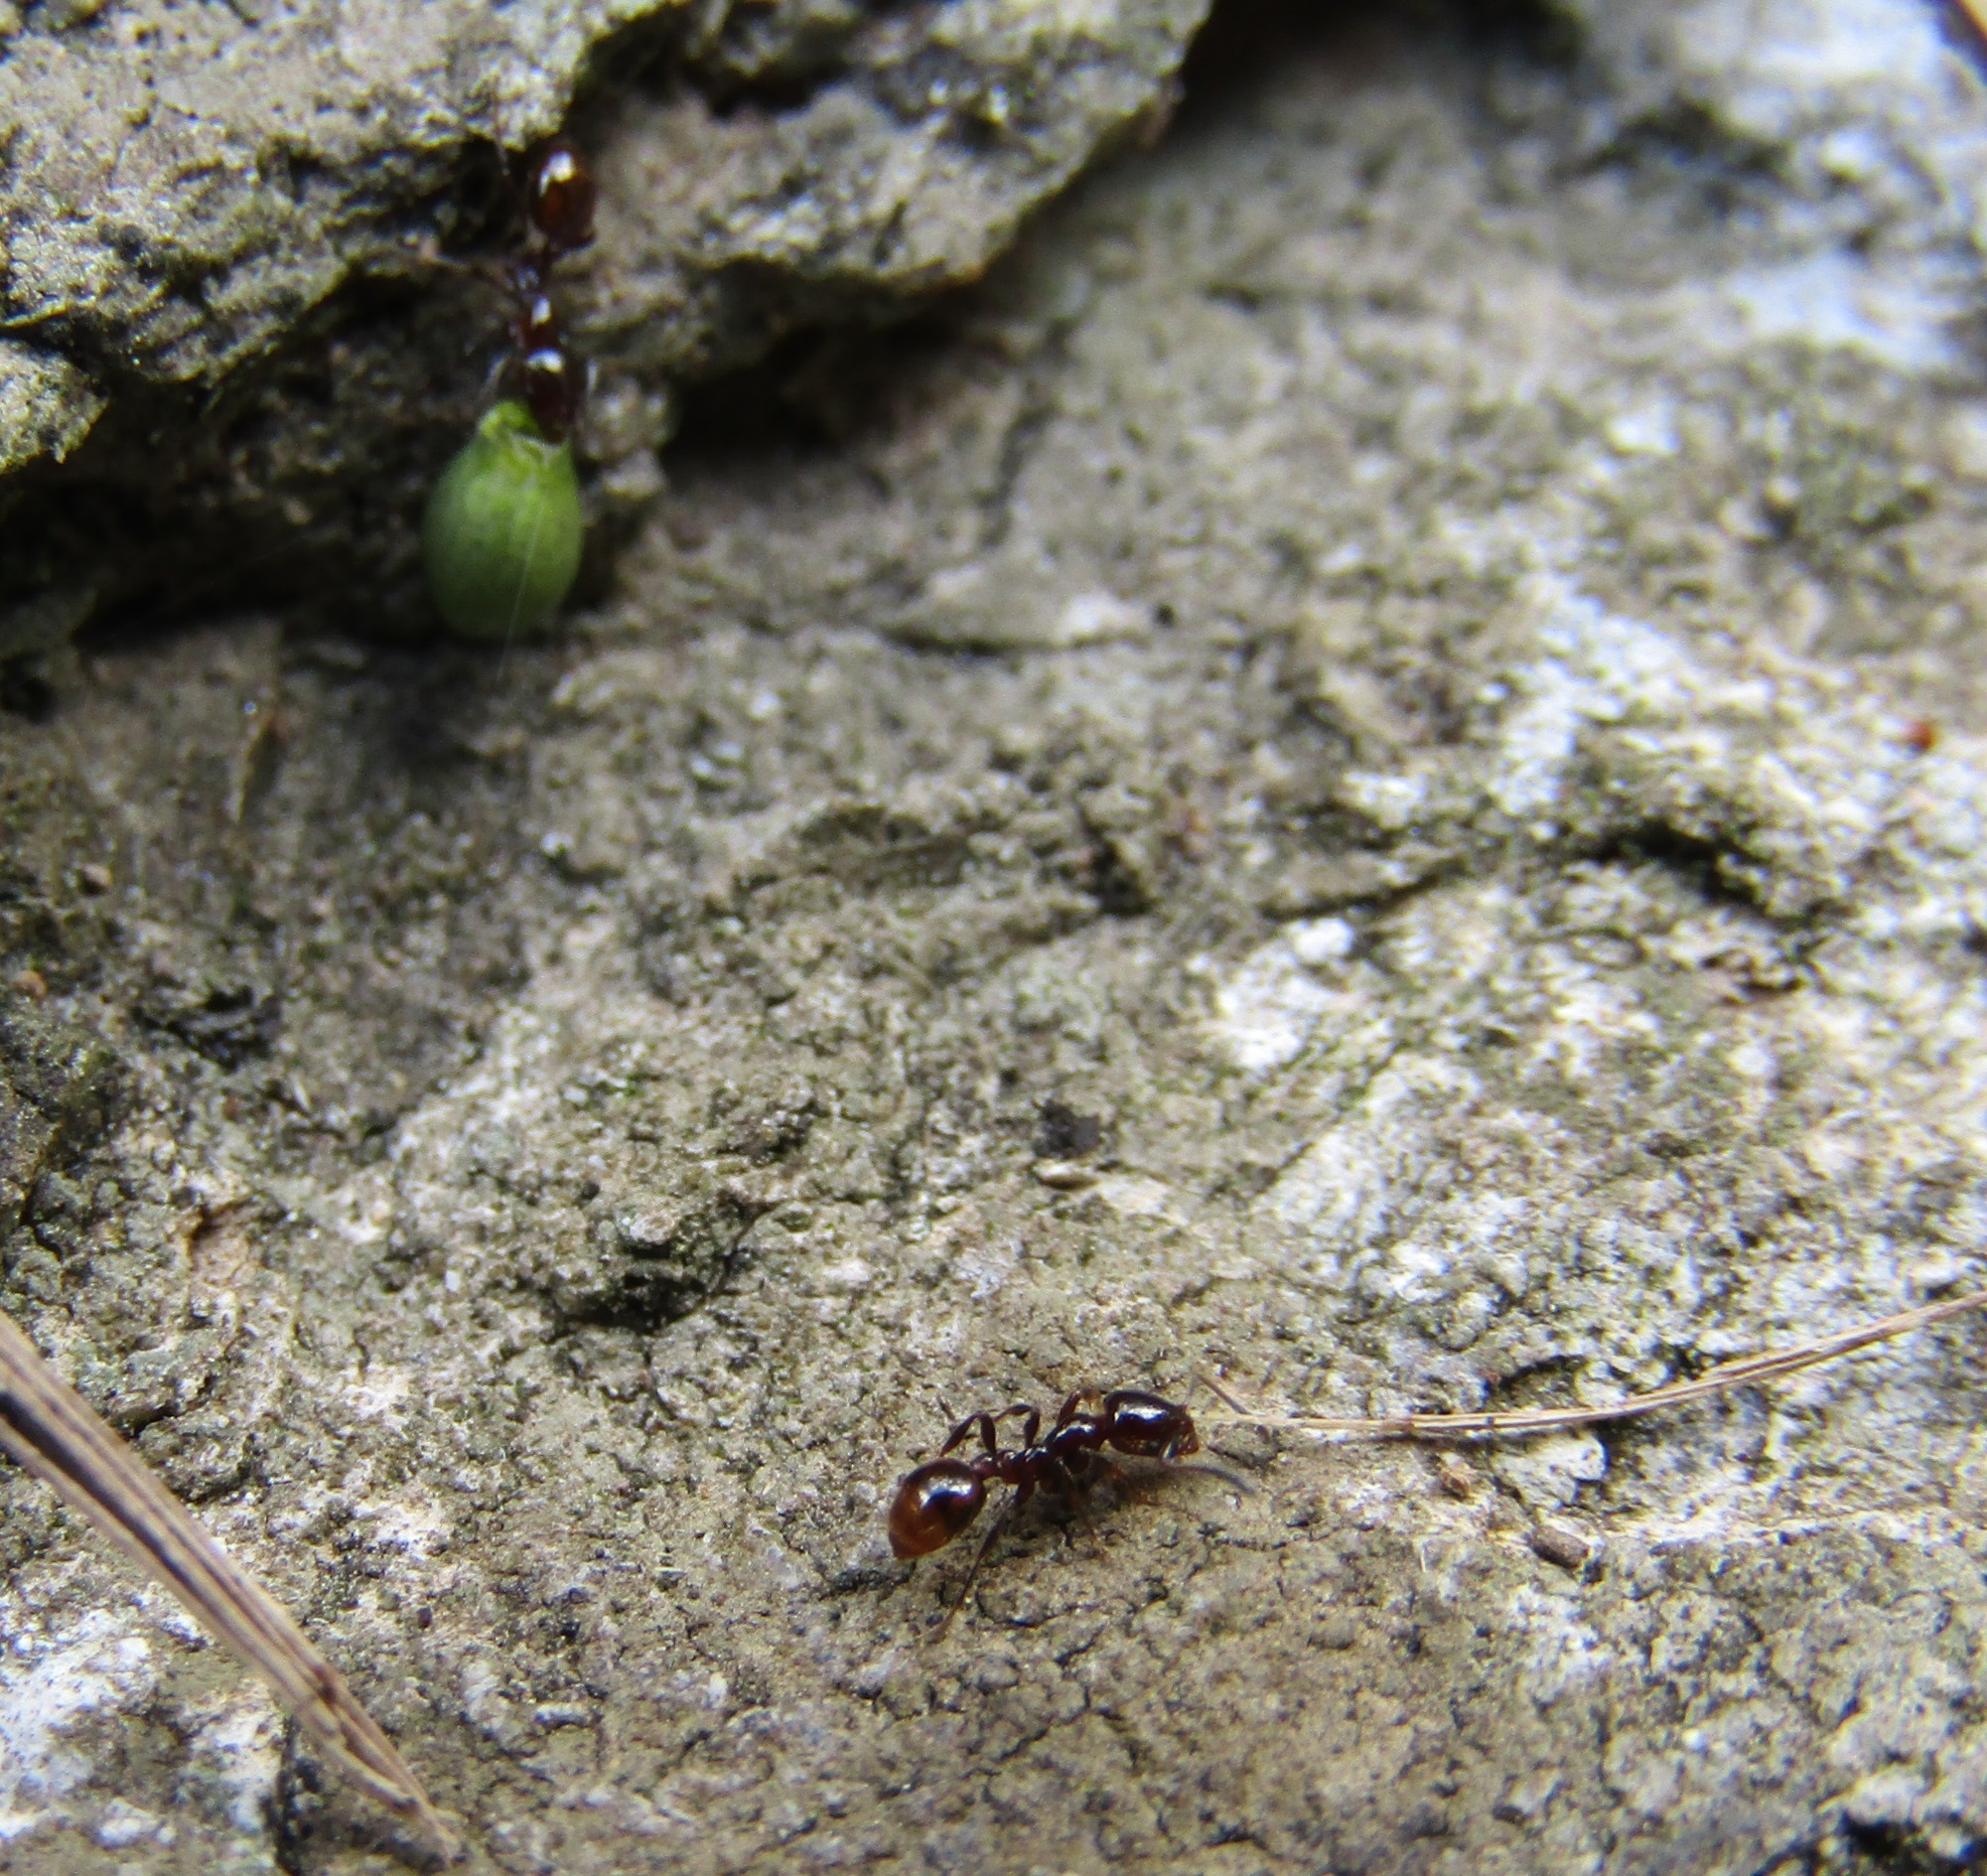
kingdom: Animalia
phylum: Arthropoda
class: Insecta
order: Hymenoptera
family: Formicidae
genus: Monomorium
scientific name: Monomorium antarcticum
